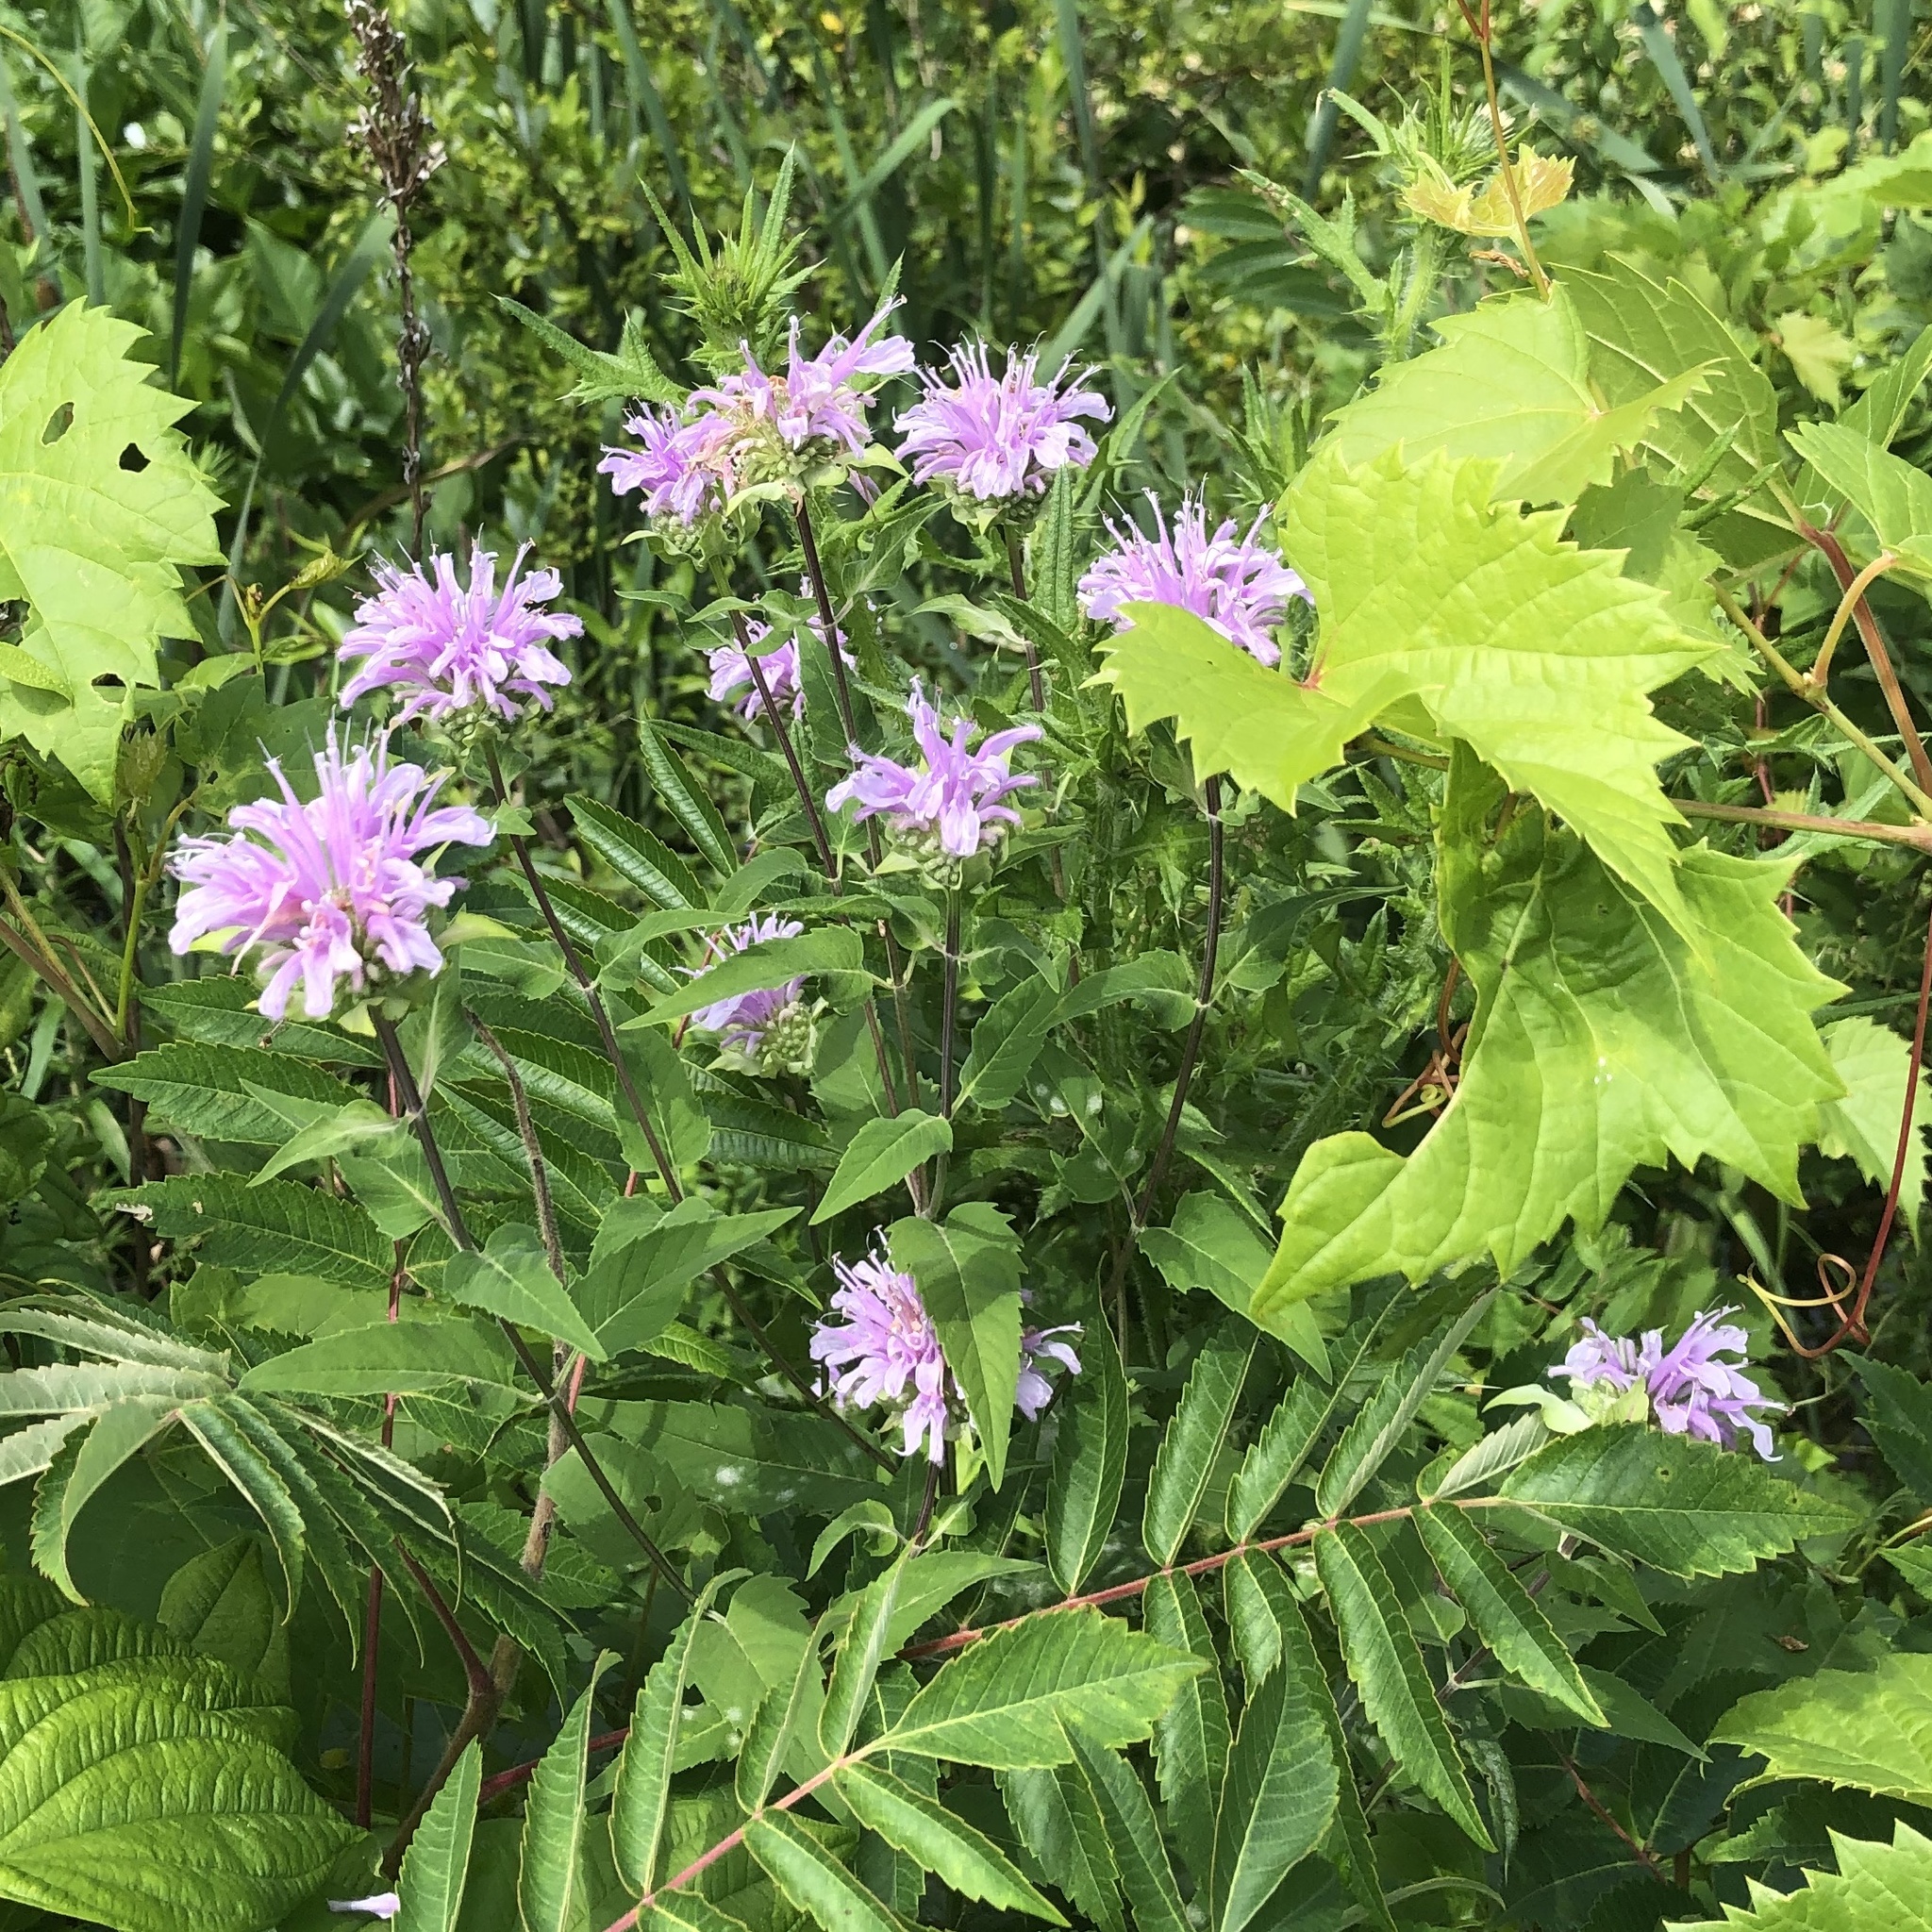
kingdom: Plantae
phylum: Tracheophyta
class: Magnoliopsida
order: Lamiales
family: Lamiaceae
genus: Monarda
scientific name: Monarda fistulosa
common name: Purple beebalm
